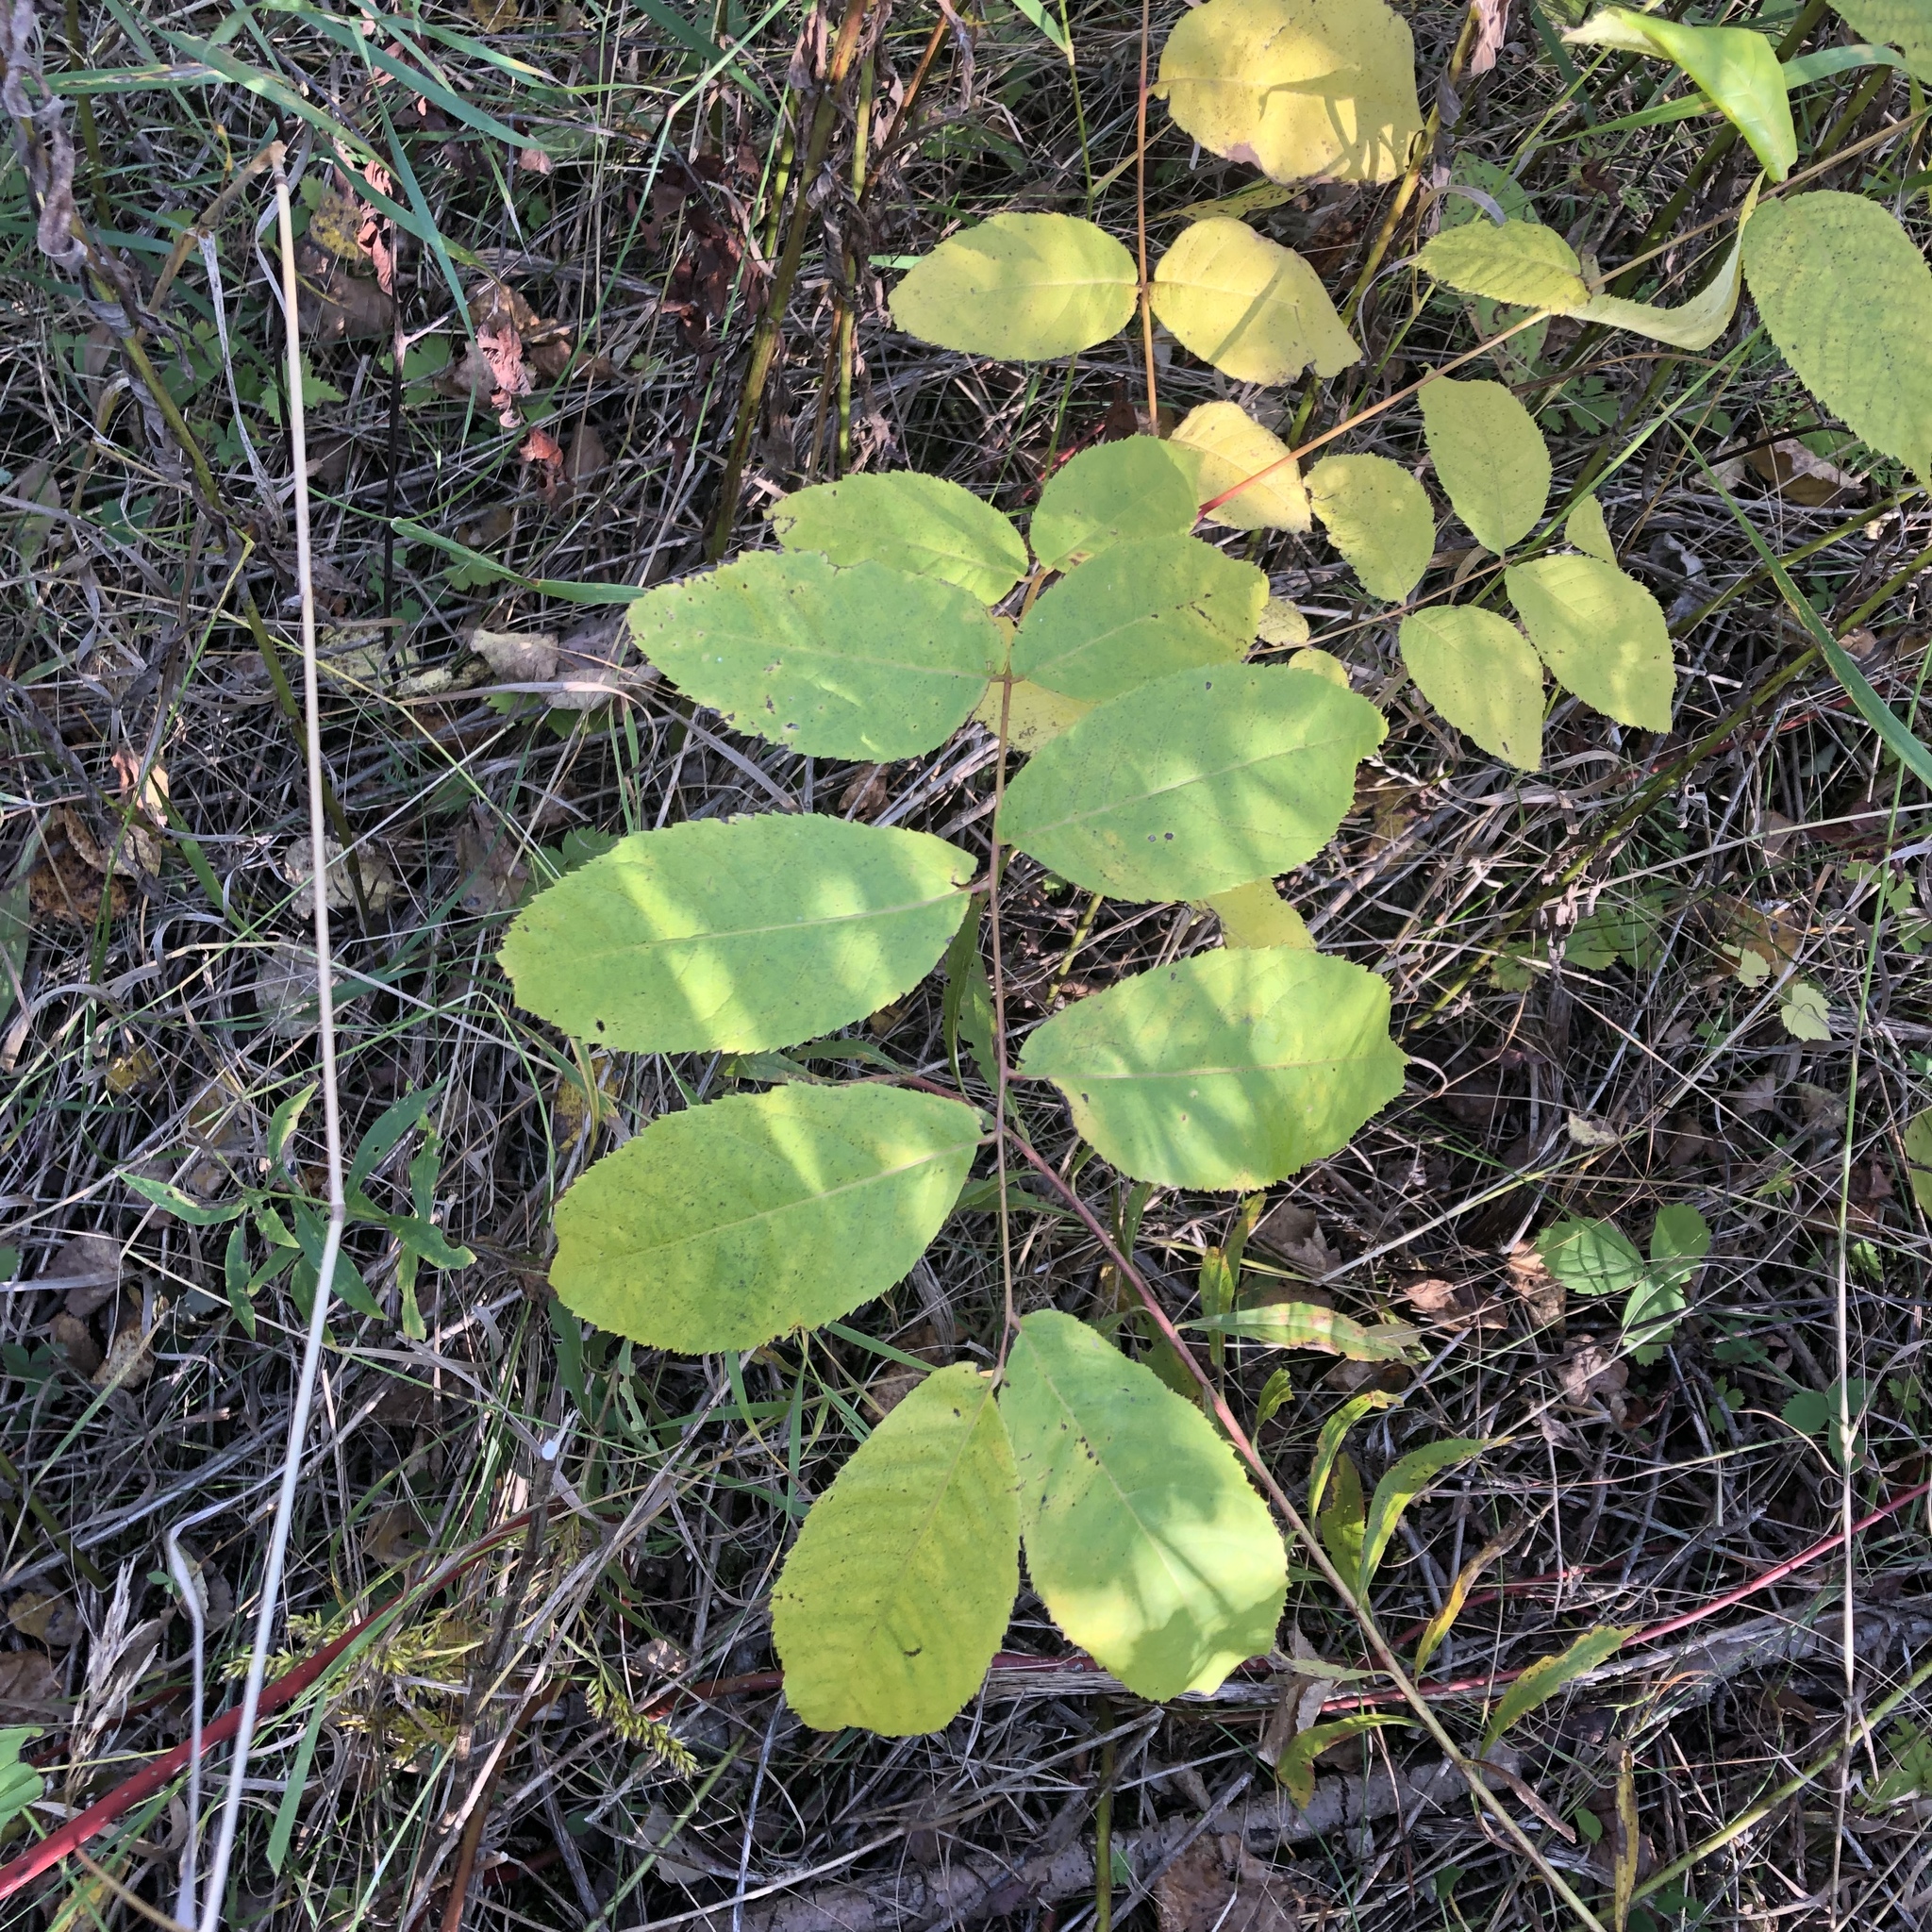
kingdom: Plantae
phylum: Tracheophyta
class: Magnoliopsida
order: Fagales
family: Juglandaceae
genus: Juglans
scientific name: Juglans nigra
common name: Black walnut
